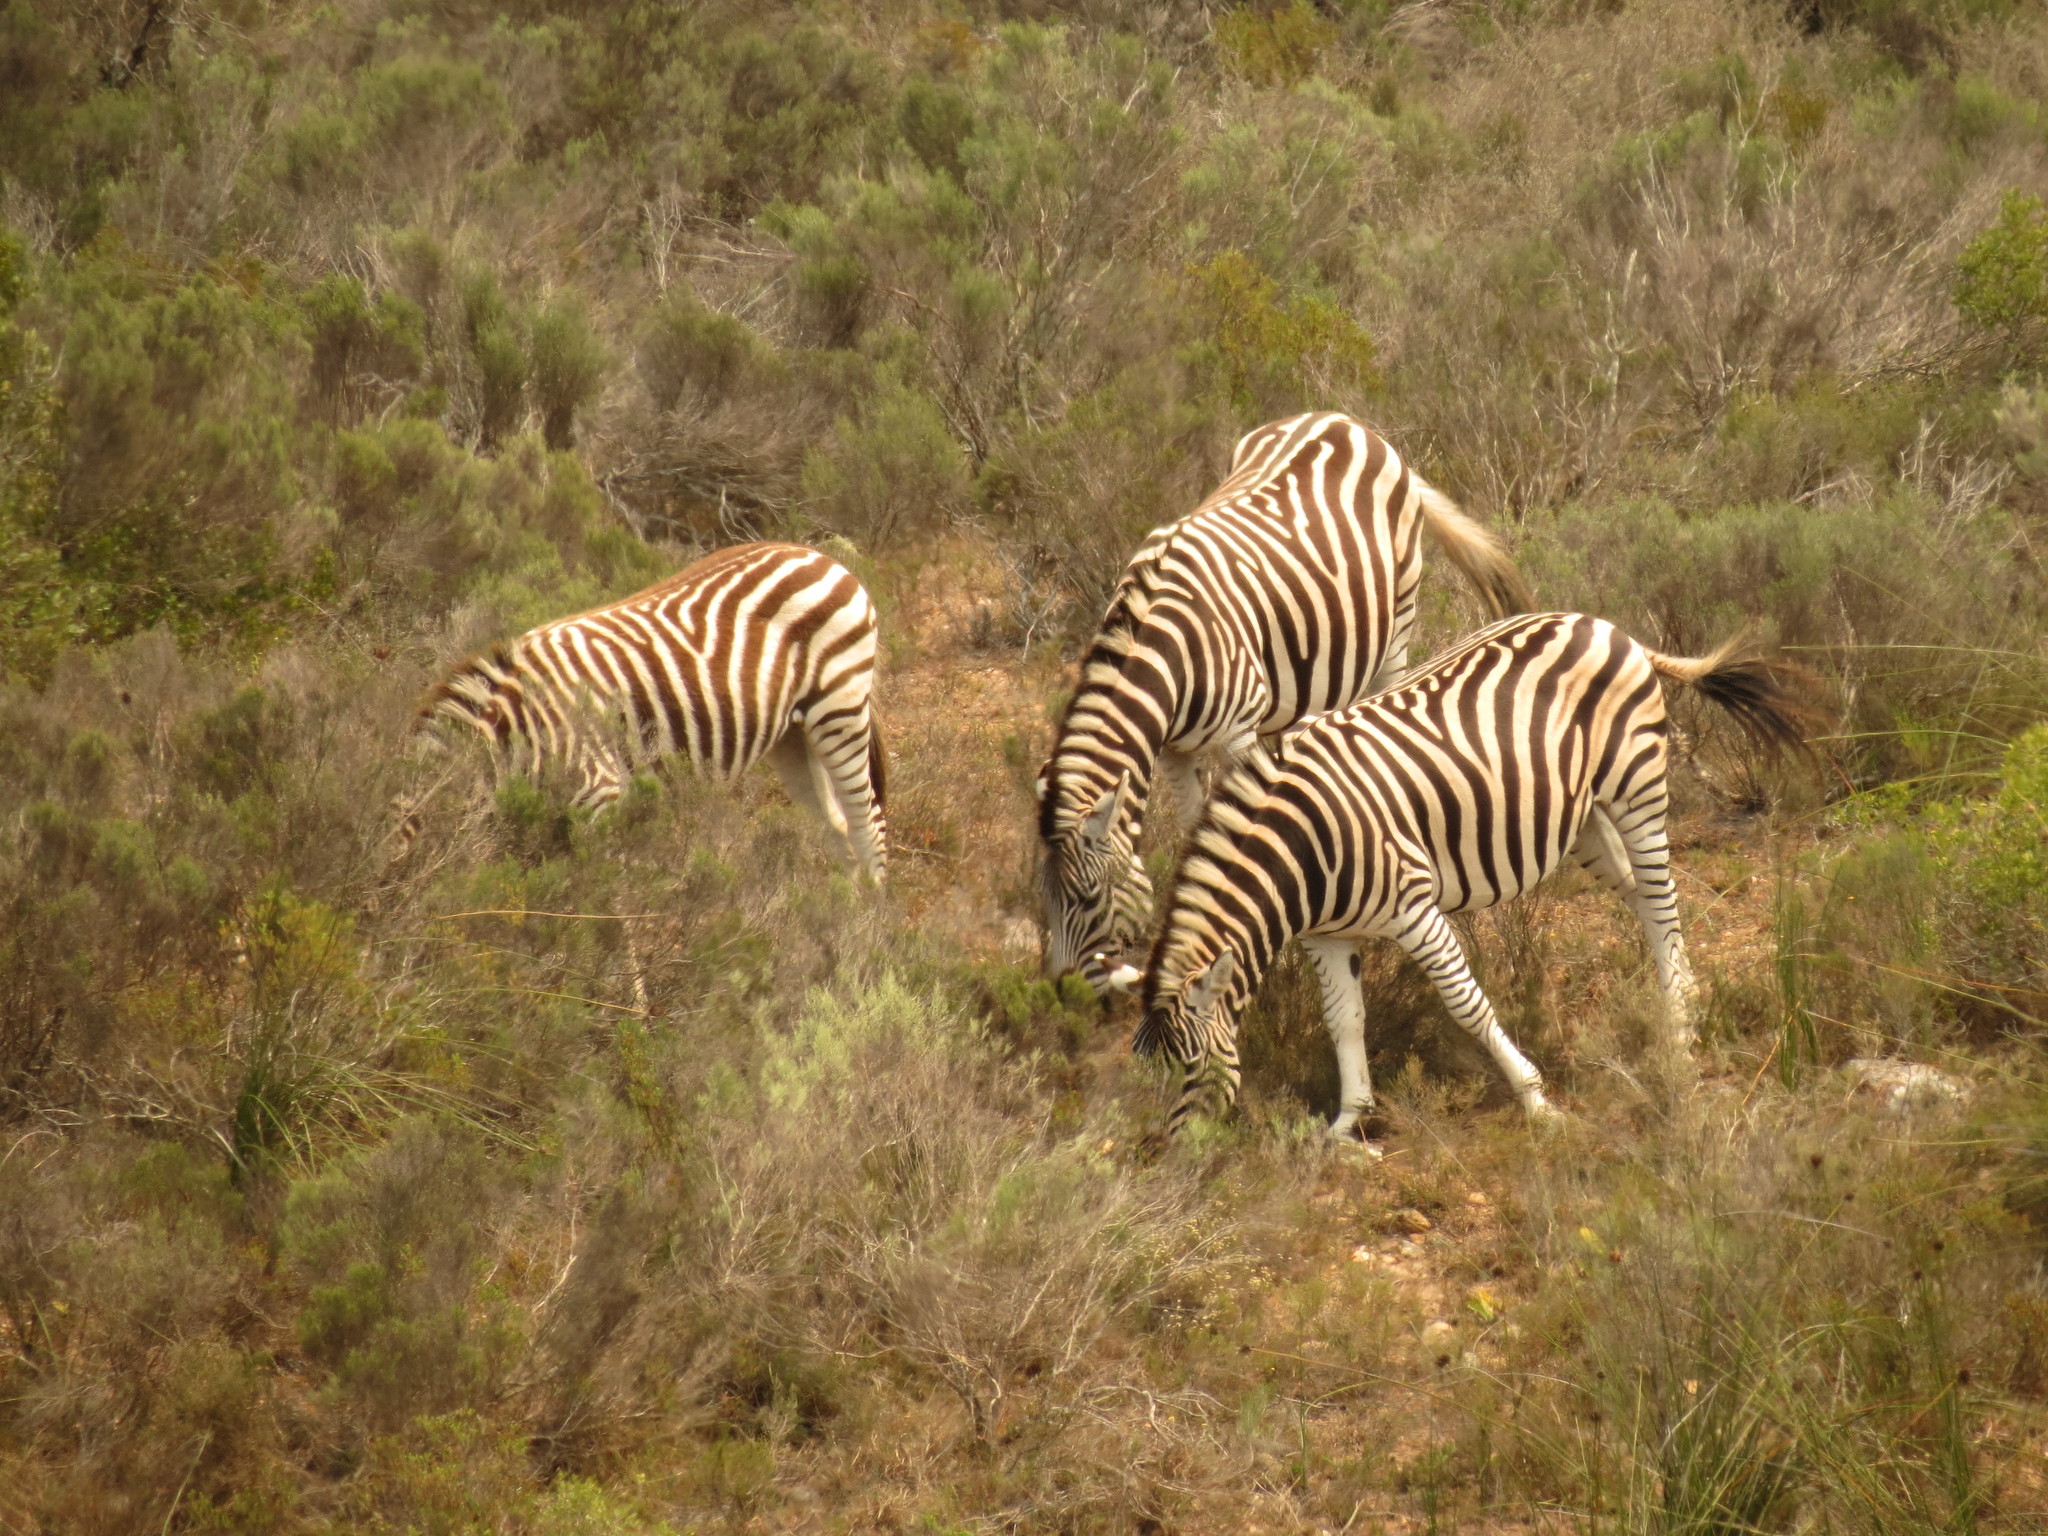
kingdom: Animalia
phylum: Chordata
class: Mammalia
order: Perissodactyla
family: Equidae
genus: Equus
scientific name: Equus quagga
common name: Plains zebra
